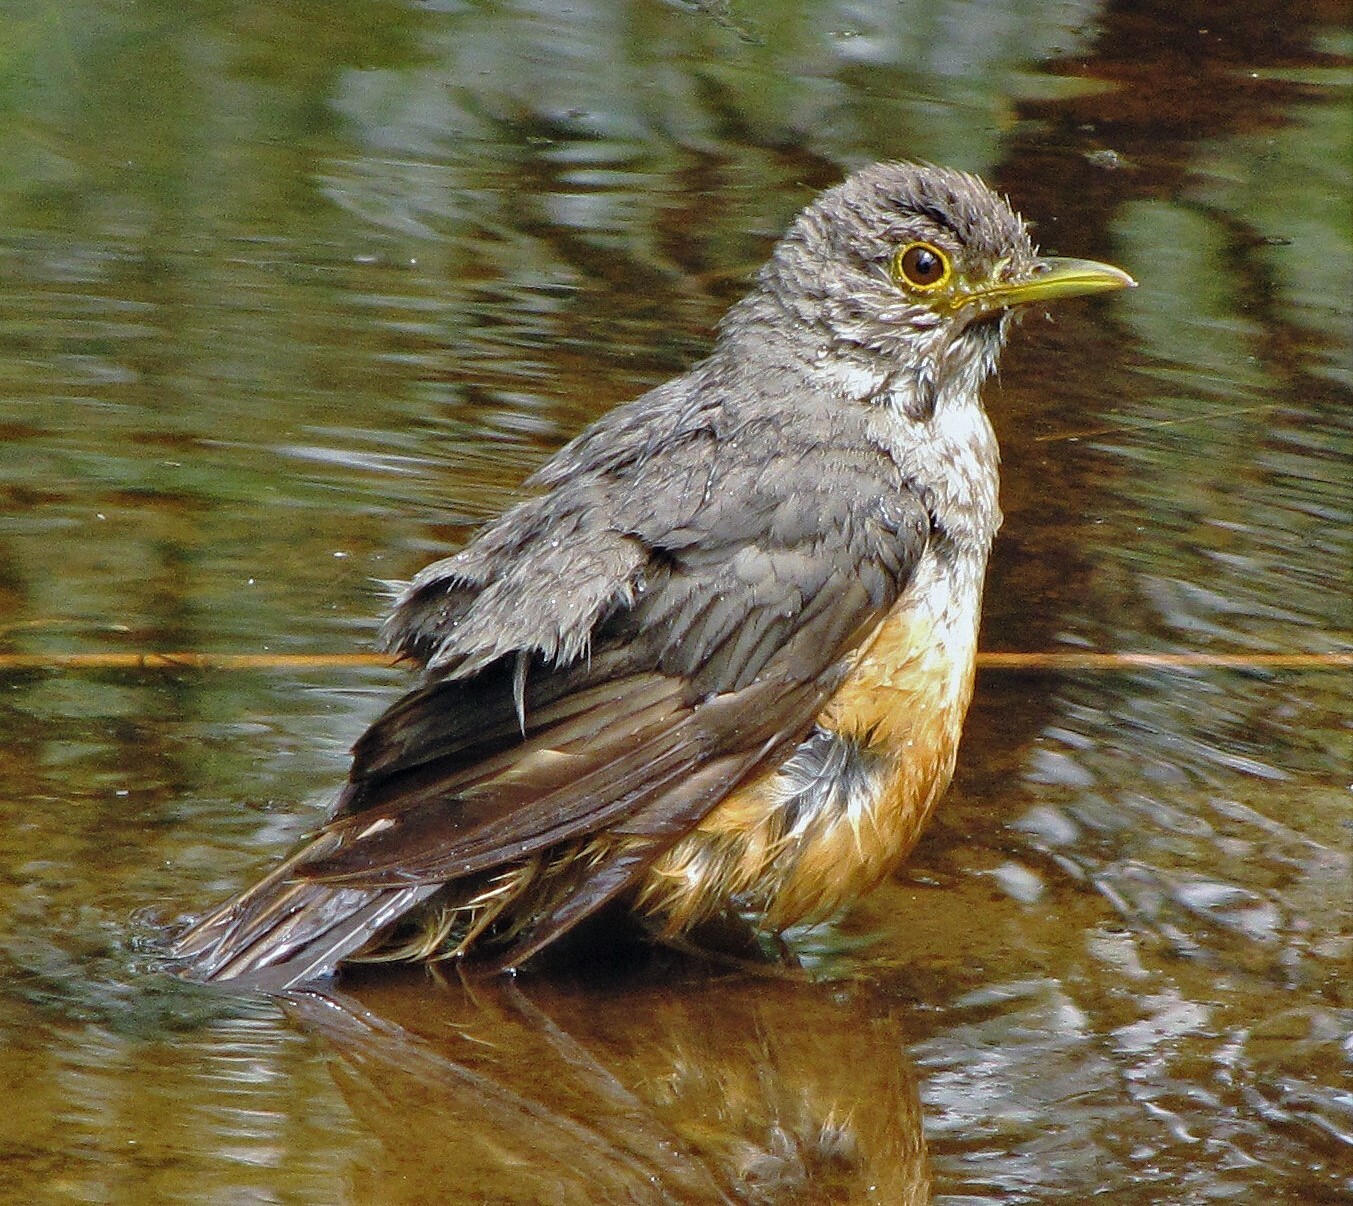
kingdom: Animalia
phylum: Chordata
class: Aves
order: Passeriformes
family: Turdidae
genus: Turdus
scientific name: Turdus rufiventris
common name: Rufous-bellied thrush
